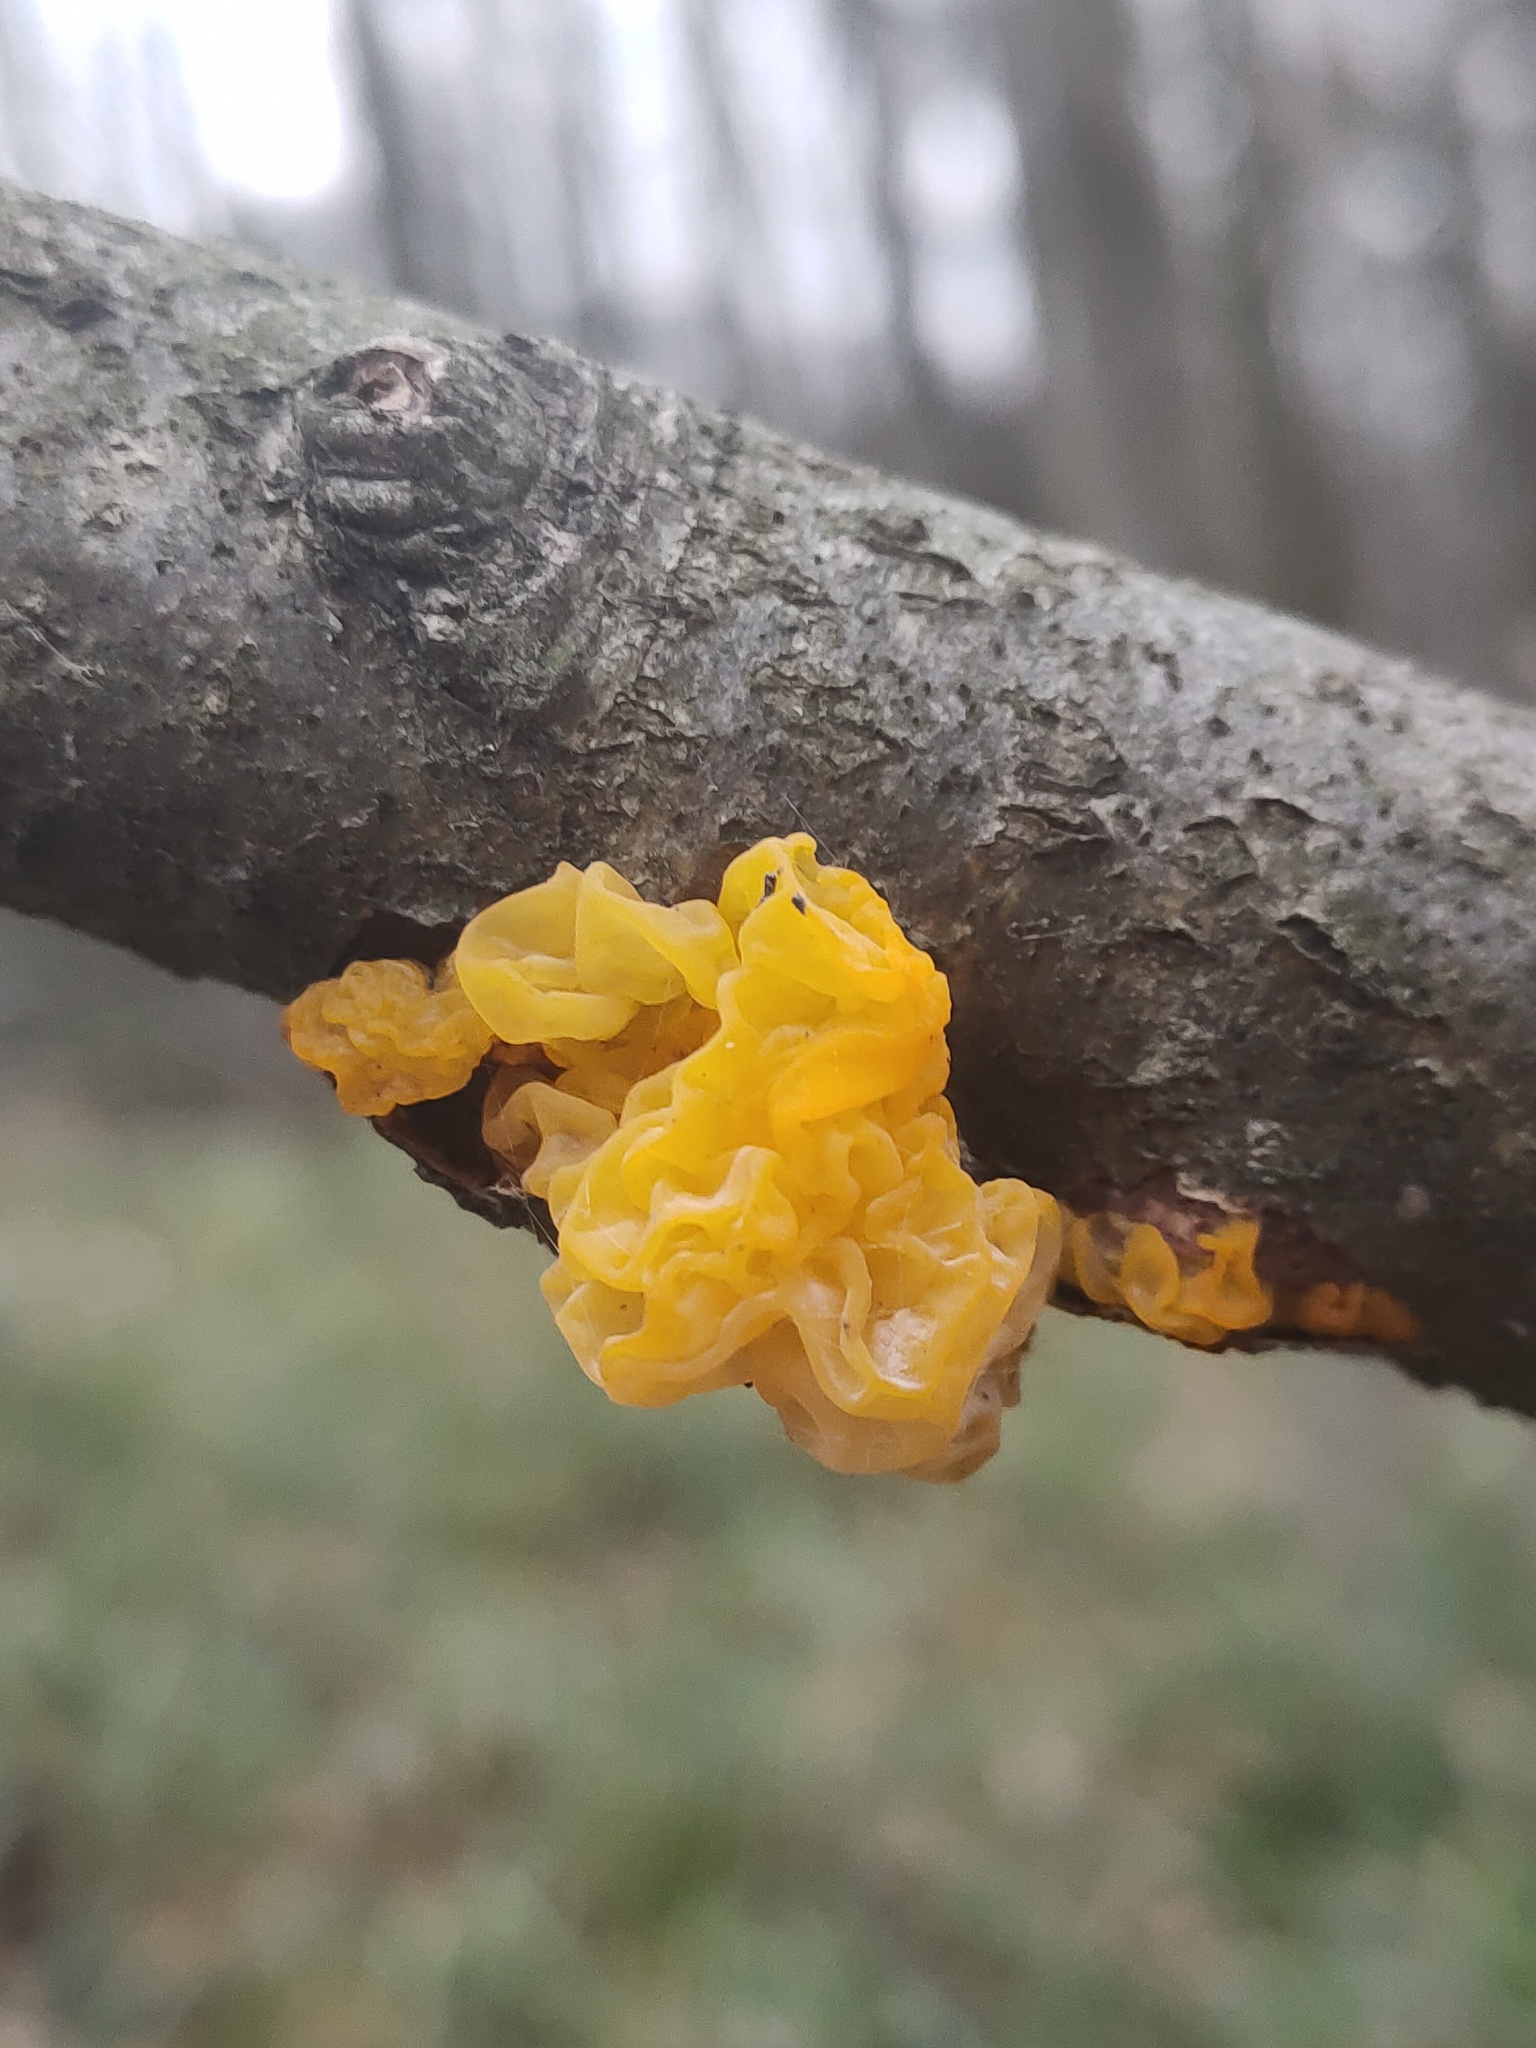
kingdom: Fungi
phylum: Basidiomycota
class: Tremellomycetes
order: Tremellales
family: Tremellaceae
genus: Tremella
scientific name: Tremella mesenterica
